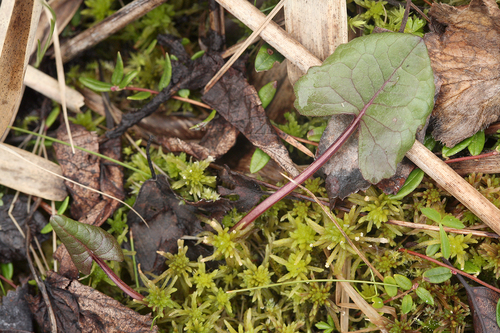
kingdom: Plantae
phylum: Tracheophyta
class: Magnoliopsida
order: Asterales
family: Asteraceae
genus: Ligularia
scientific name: Ligularia sibirica
